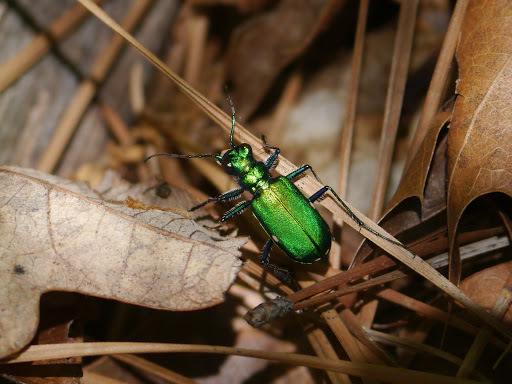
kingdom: Animalia
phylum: Arthropoda
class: Insecta
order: Coleoptera
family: Carabidae
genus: Cicindela
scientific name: Cicindela sexguttata
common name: Six-spotted tiger beetle
